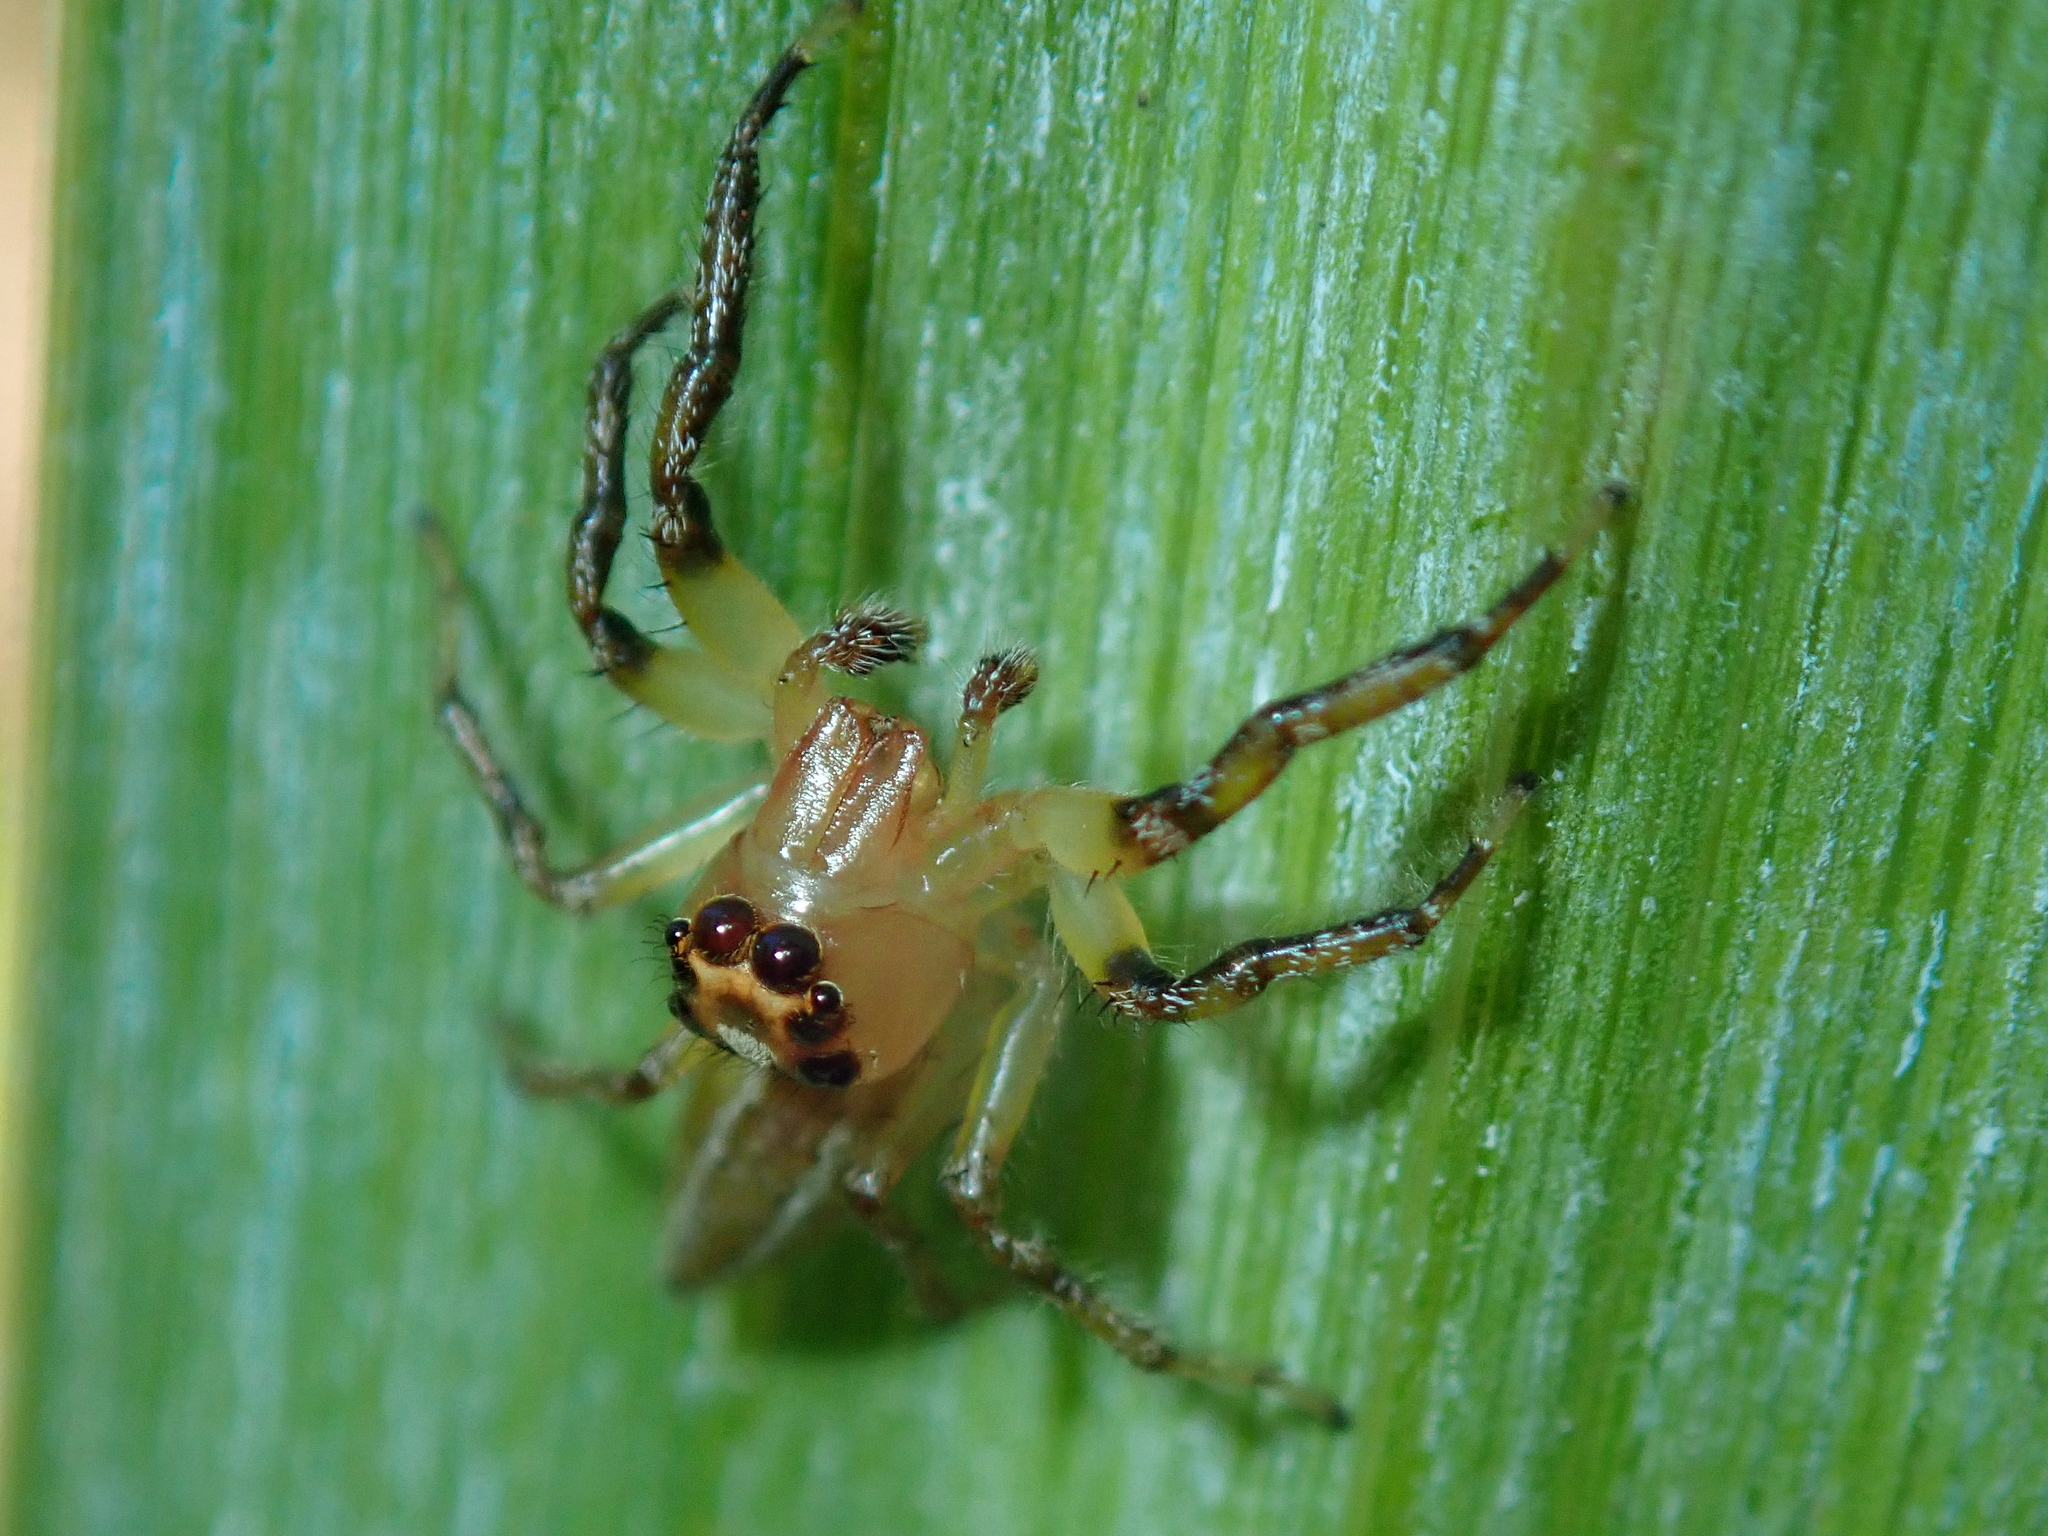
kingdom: Animalia
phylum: Arthropoda
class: Arachnida
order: Araneae
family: Salticidae
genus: Colonus
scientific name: Colonus
